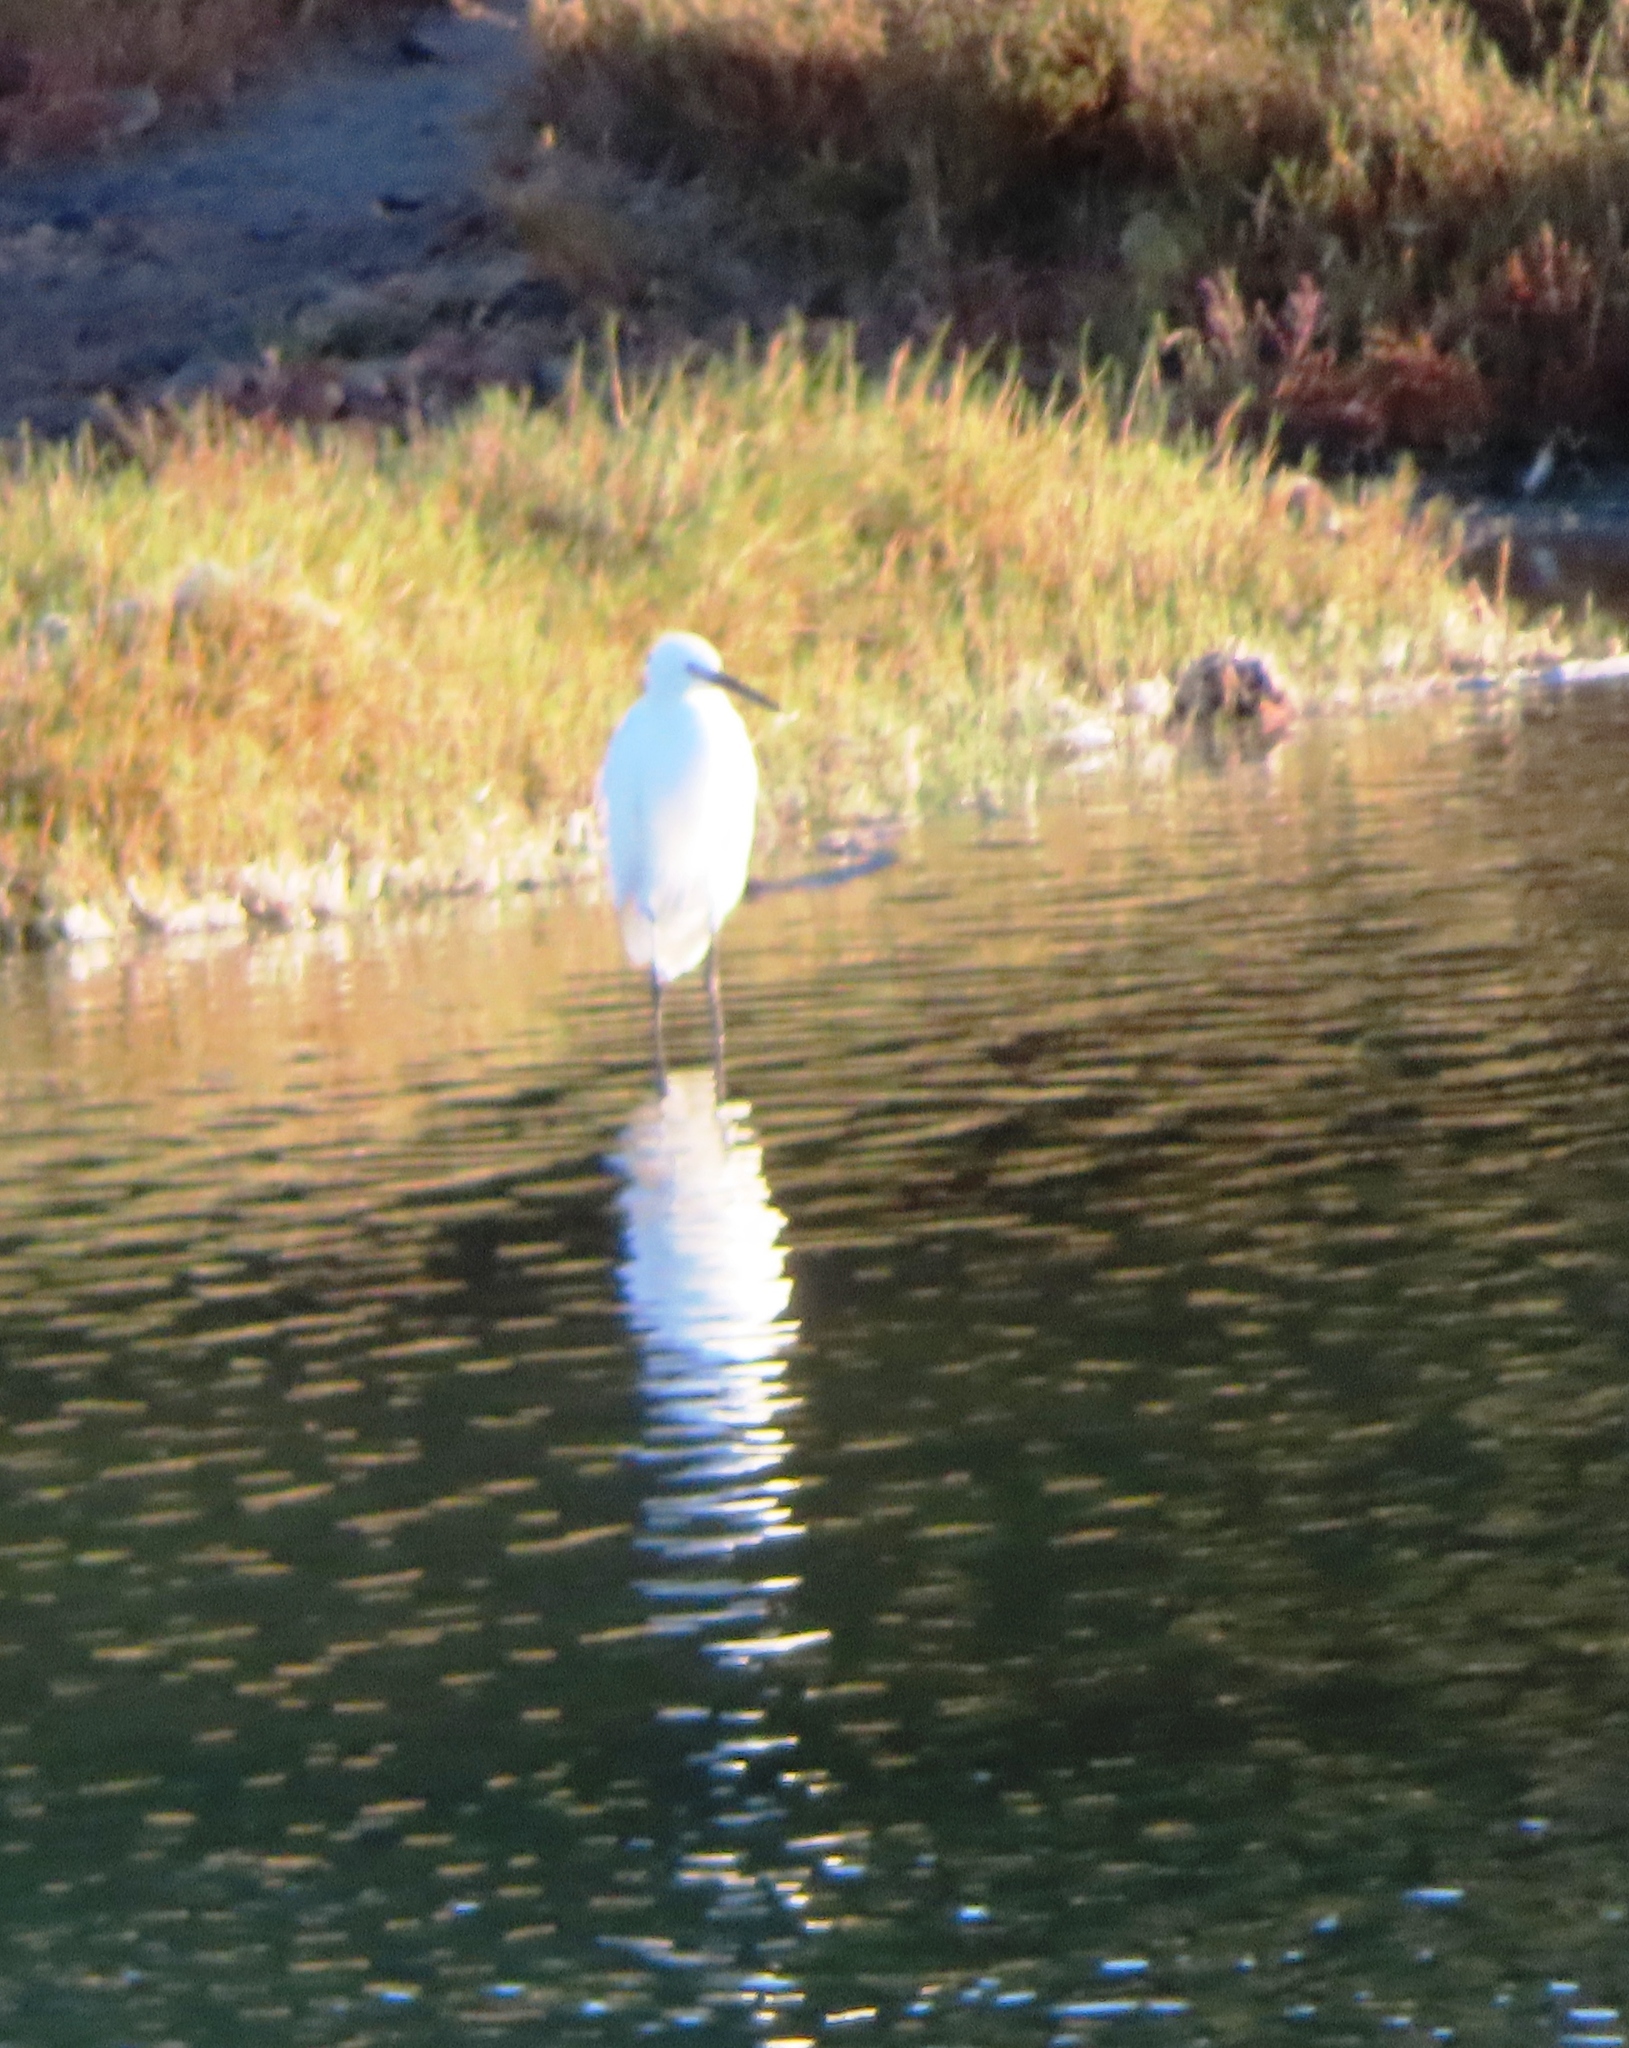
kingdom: Animalia
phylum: Chordata
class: Aves
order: Pelecaniformes
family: Ardeidae
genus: Egretta
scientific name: Egretta garzetta
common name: Little egret
